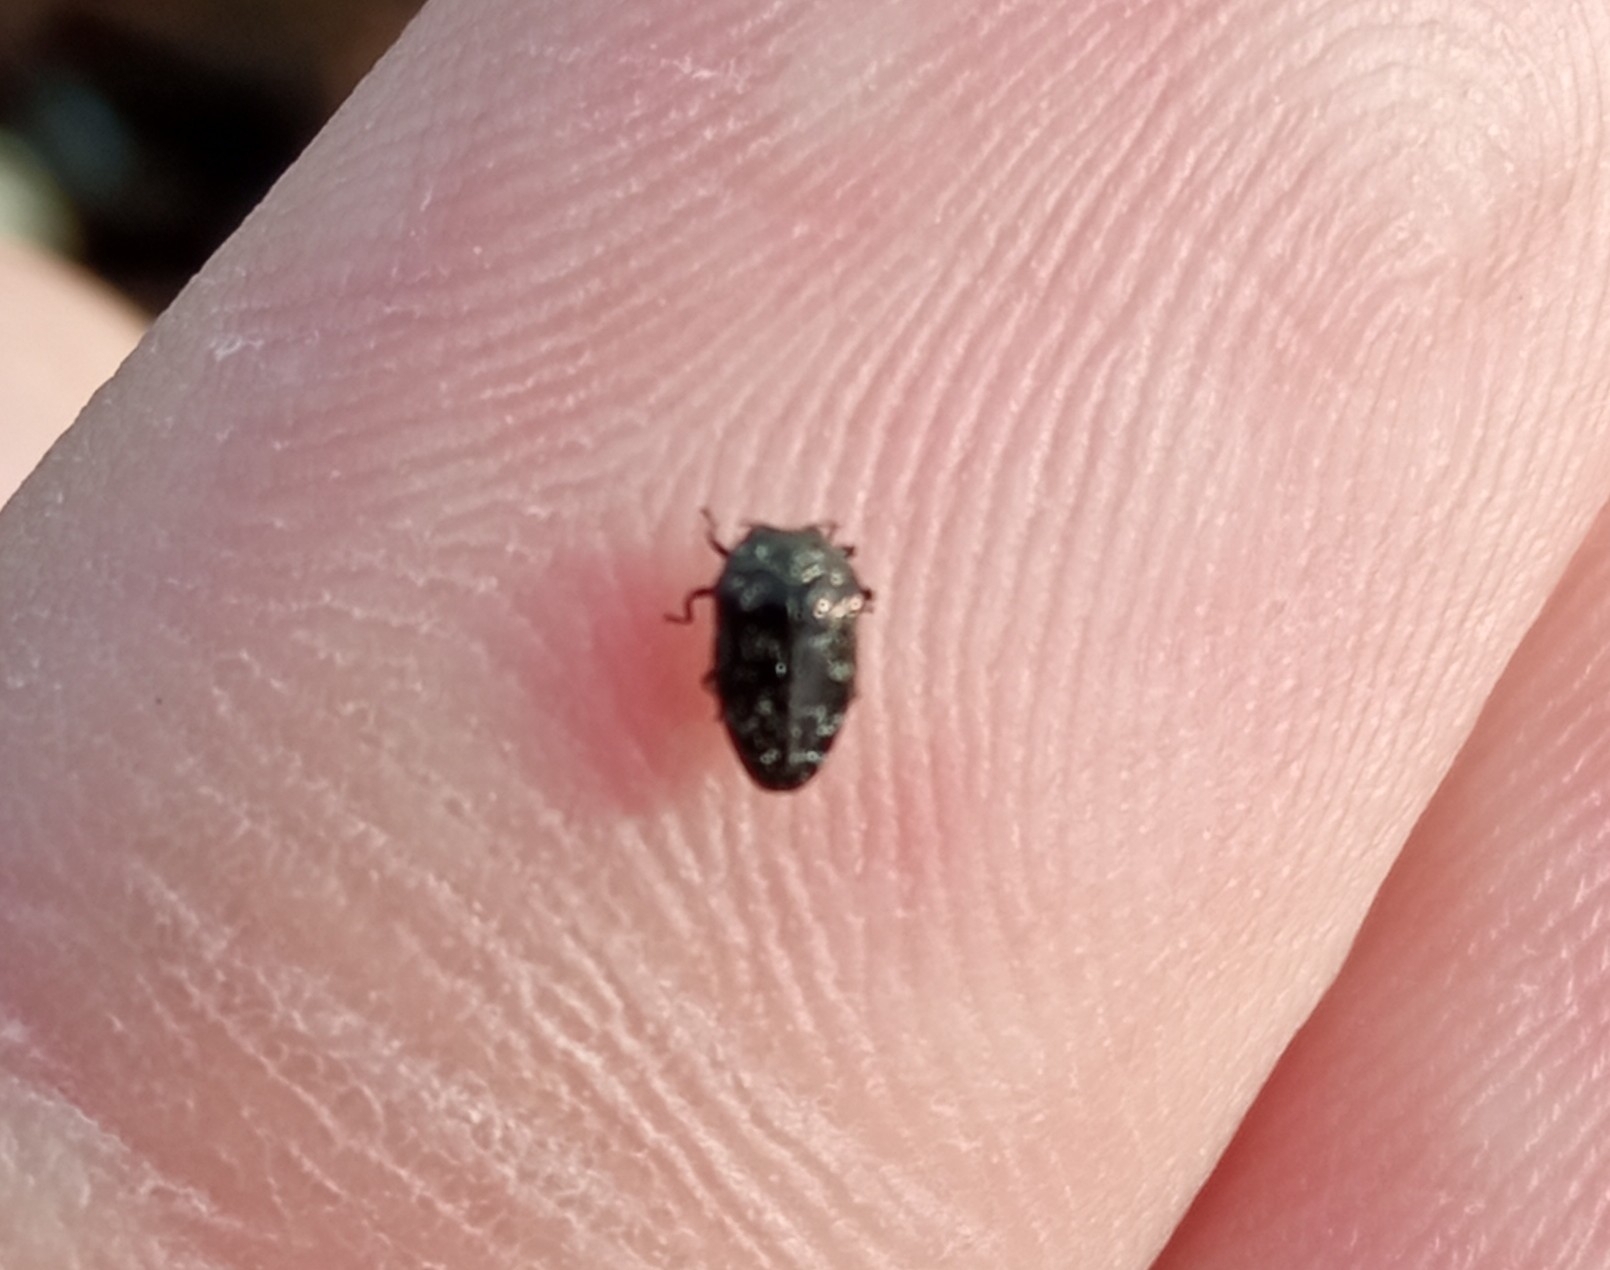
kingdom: Animalia
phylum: Arthropoda
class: Insecta
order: Coleoptera
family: Buprestidae
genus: Trachys
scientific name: Trachys minutus
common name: Metallic wood-boring beetle
